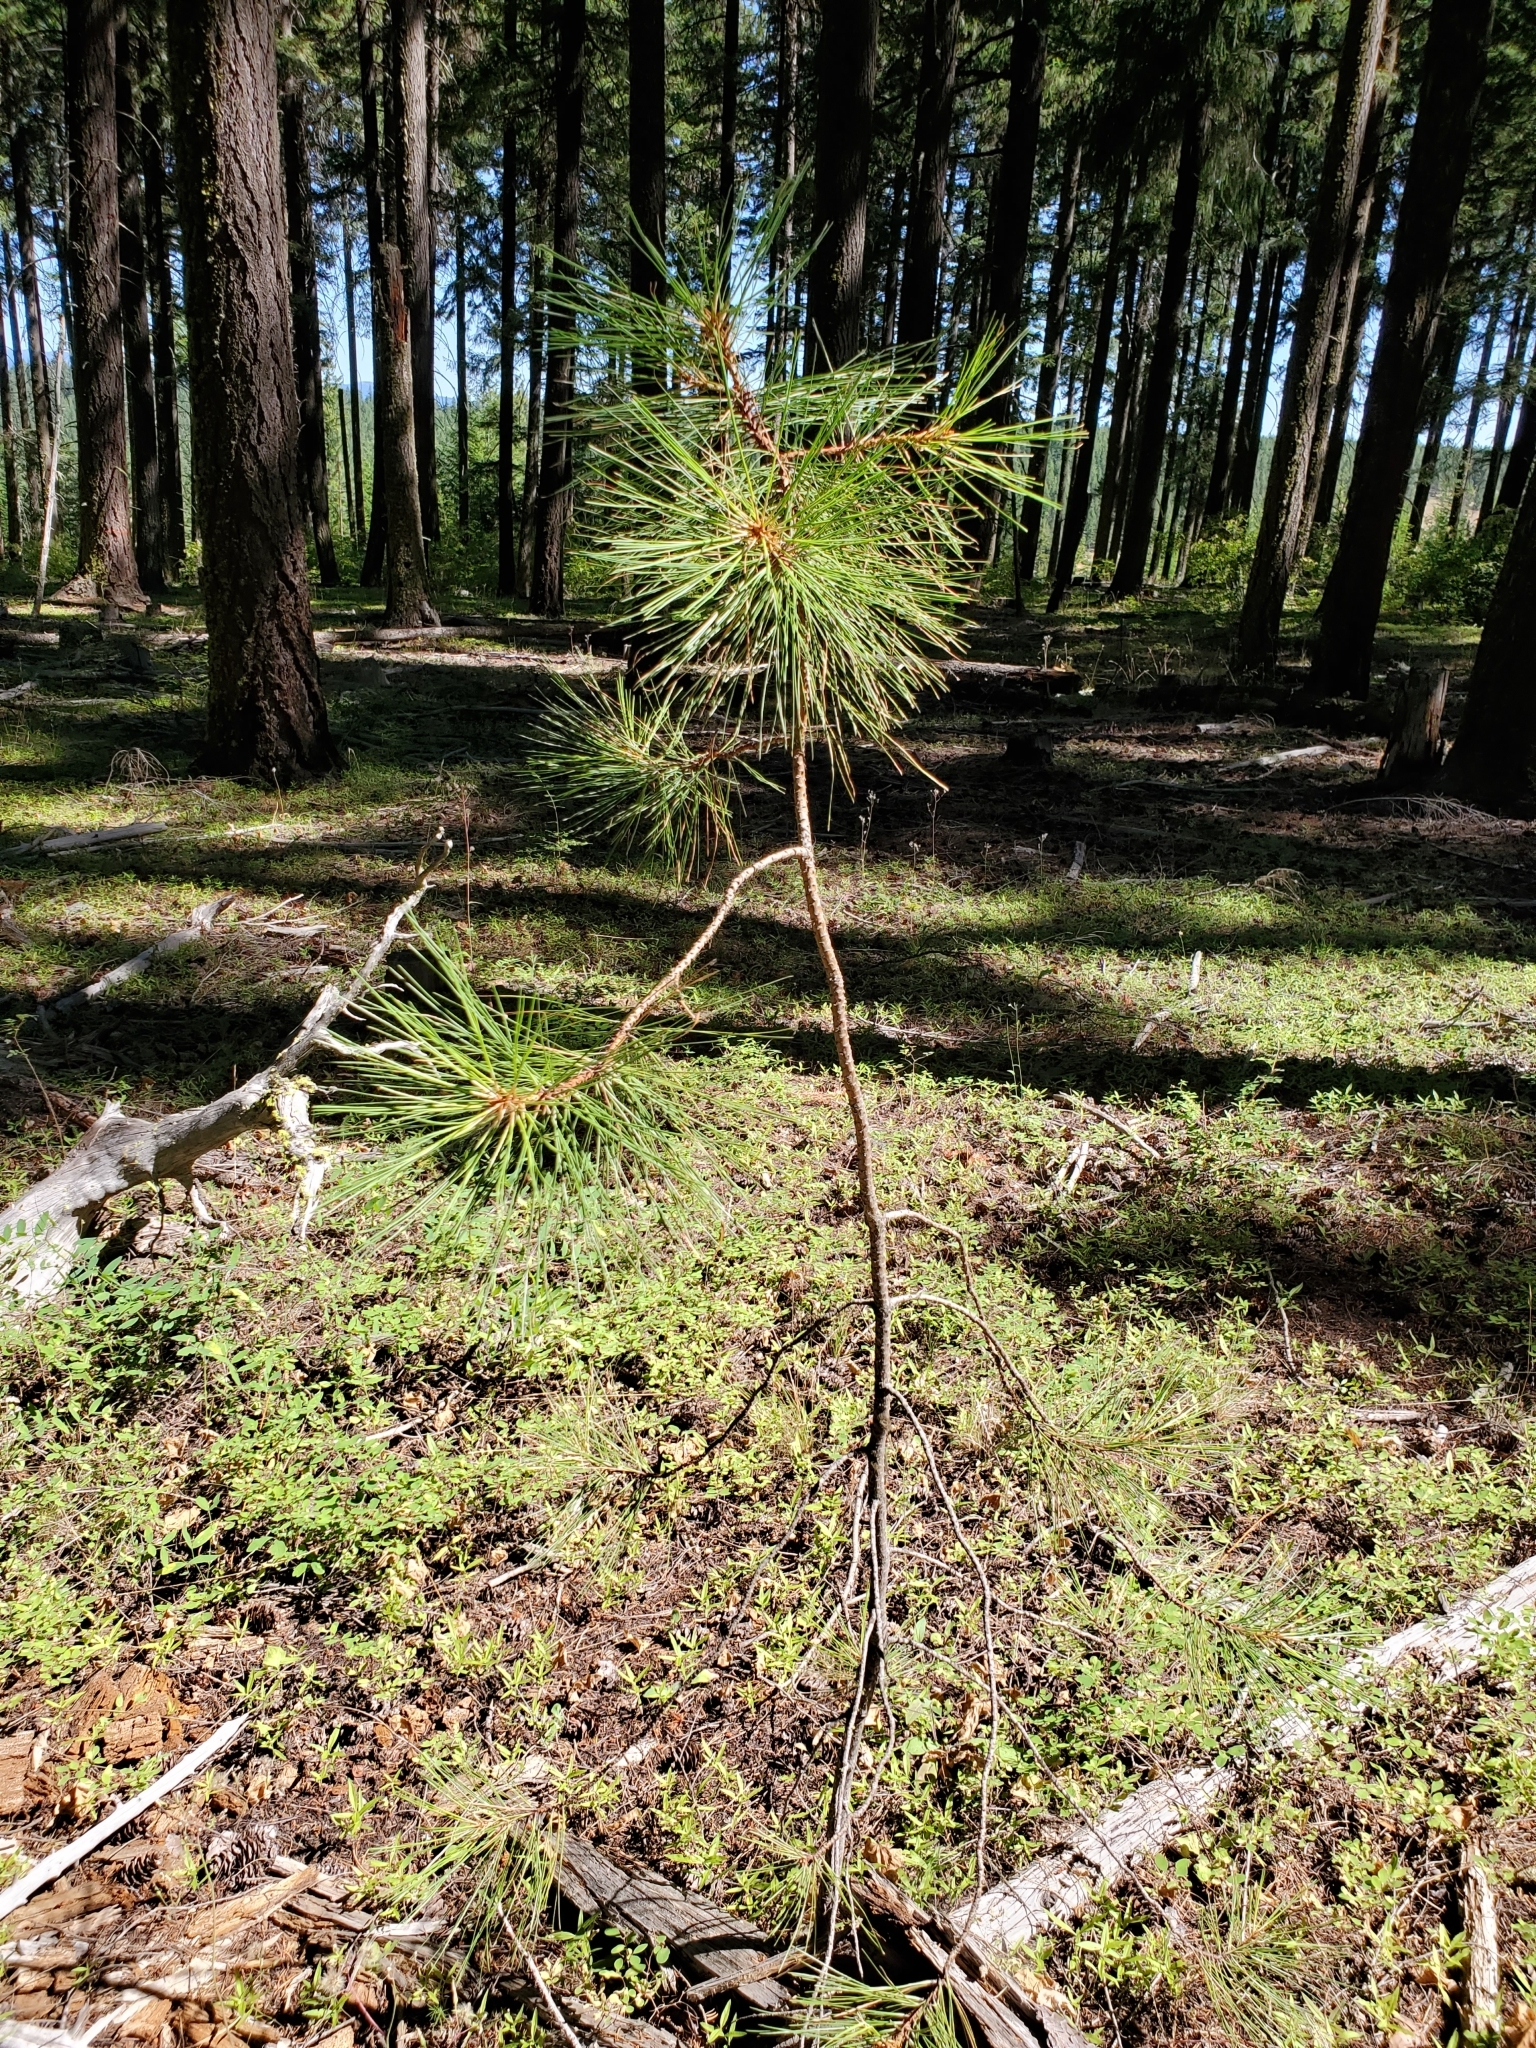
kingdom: Plantae
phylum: Tracheophyta
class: Pinopsida
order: Pinales
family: Pinaceae
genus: Pinus
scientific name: Pinus ponderosa
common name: Western yellow-pine
